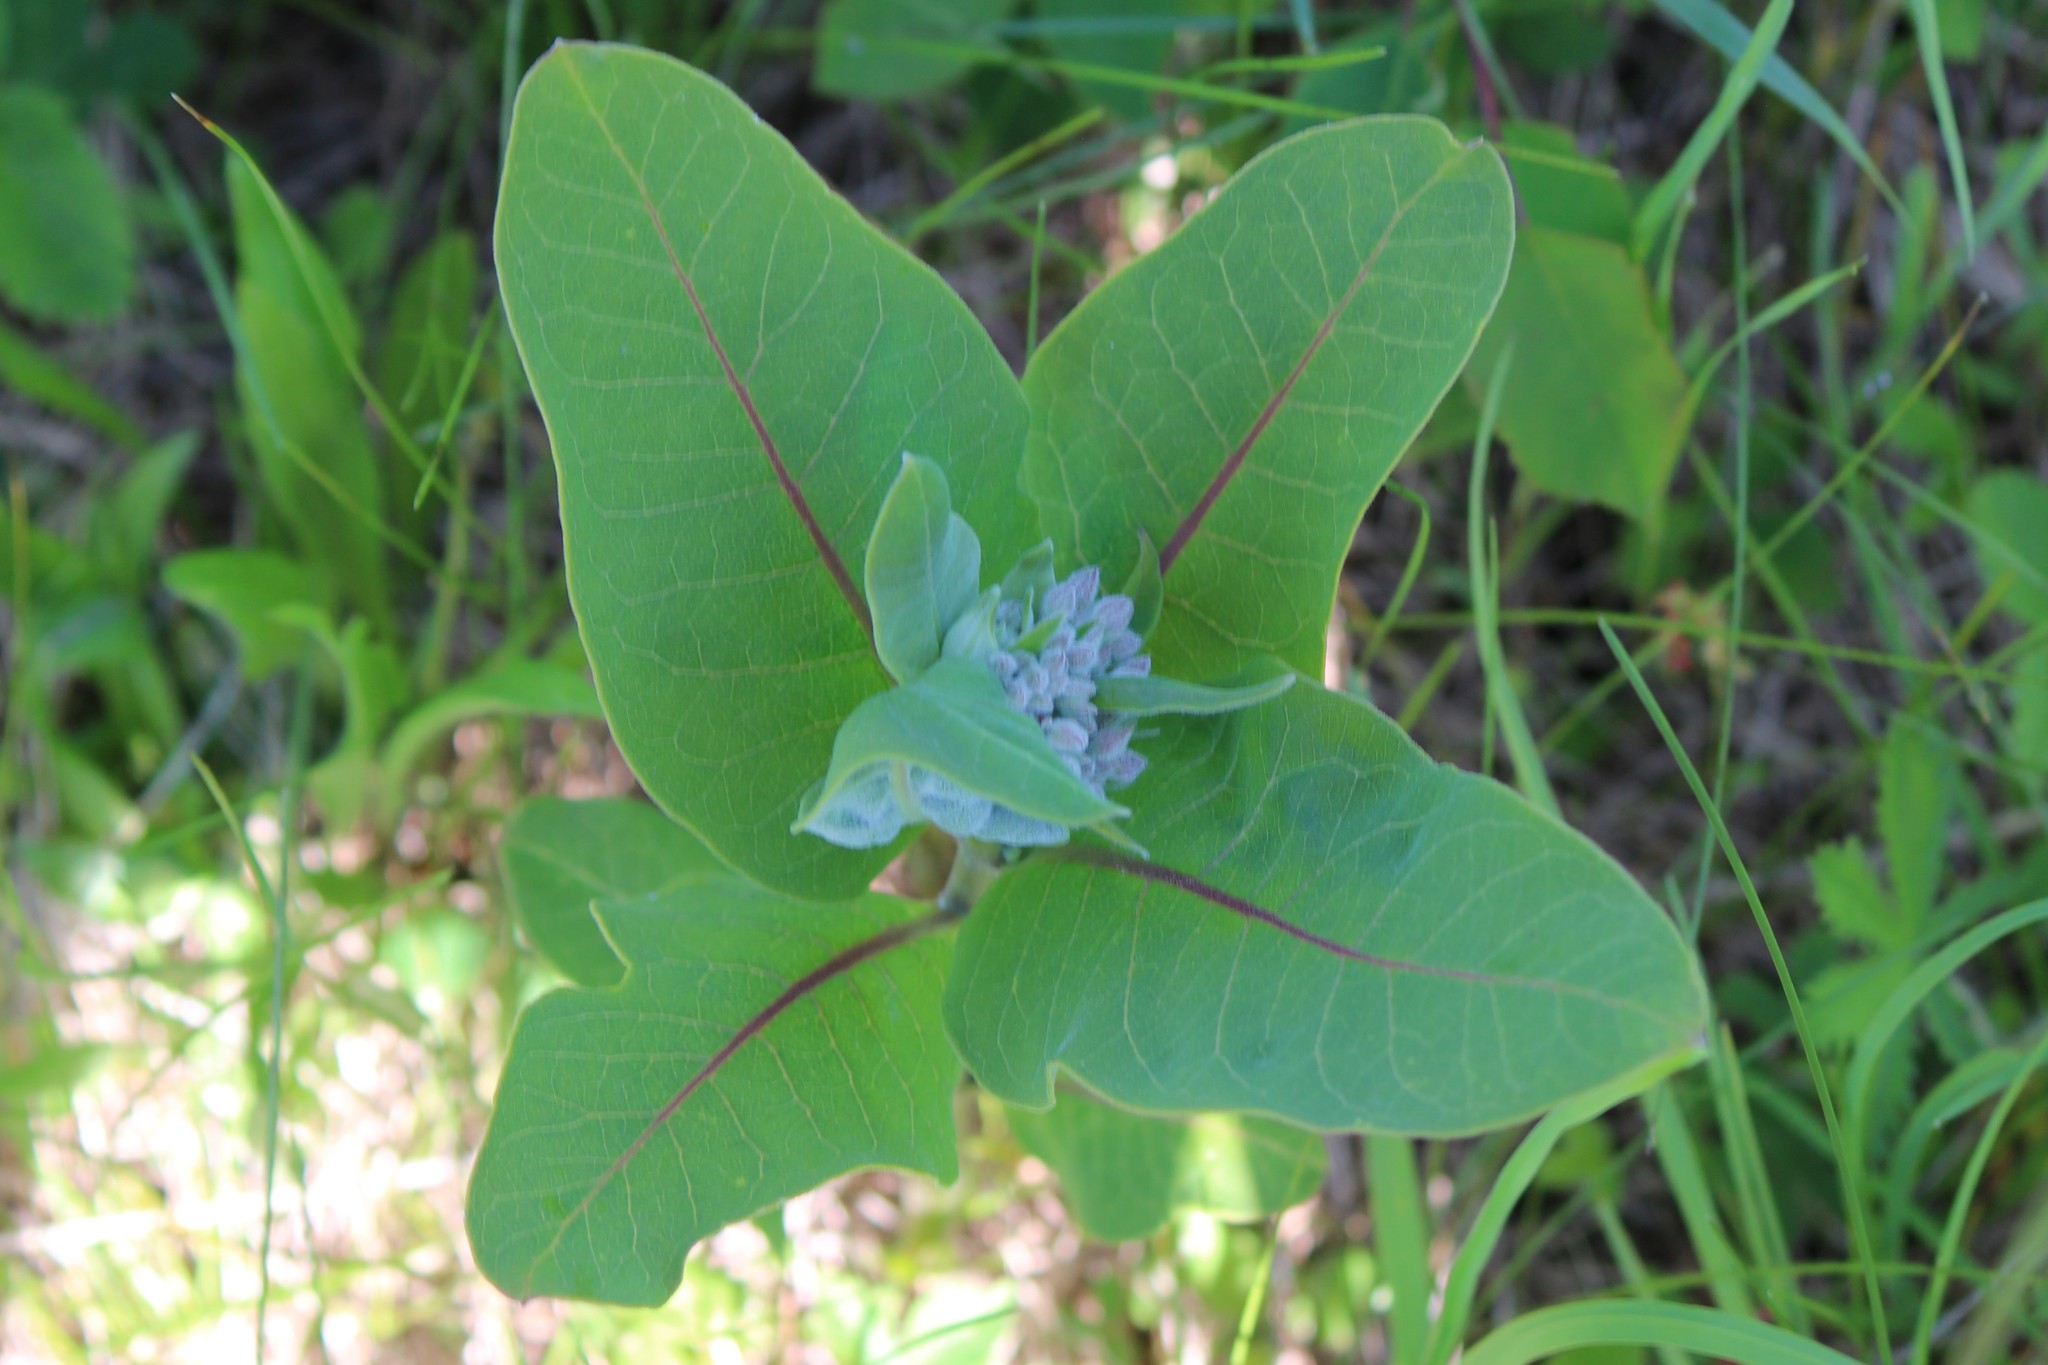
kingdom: Plantae
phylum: Tracheophyta
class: Magnoliopsida
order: Gentianales
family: Apocynaceae
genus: Asclepias
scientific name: Asclepias syriaca
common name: Common milkweed
